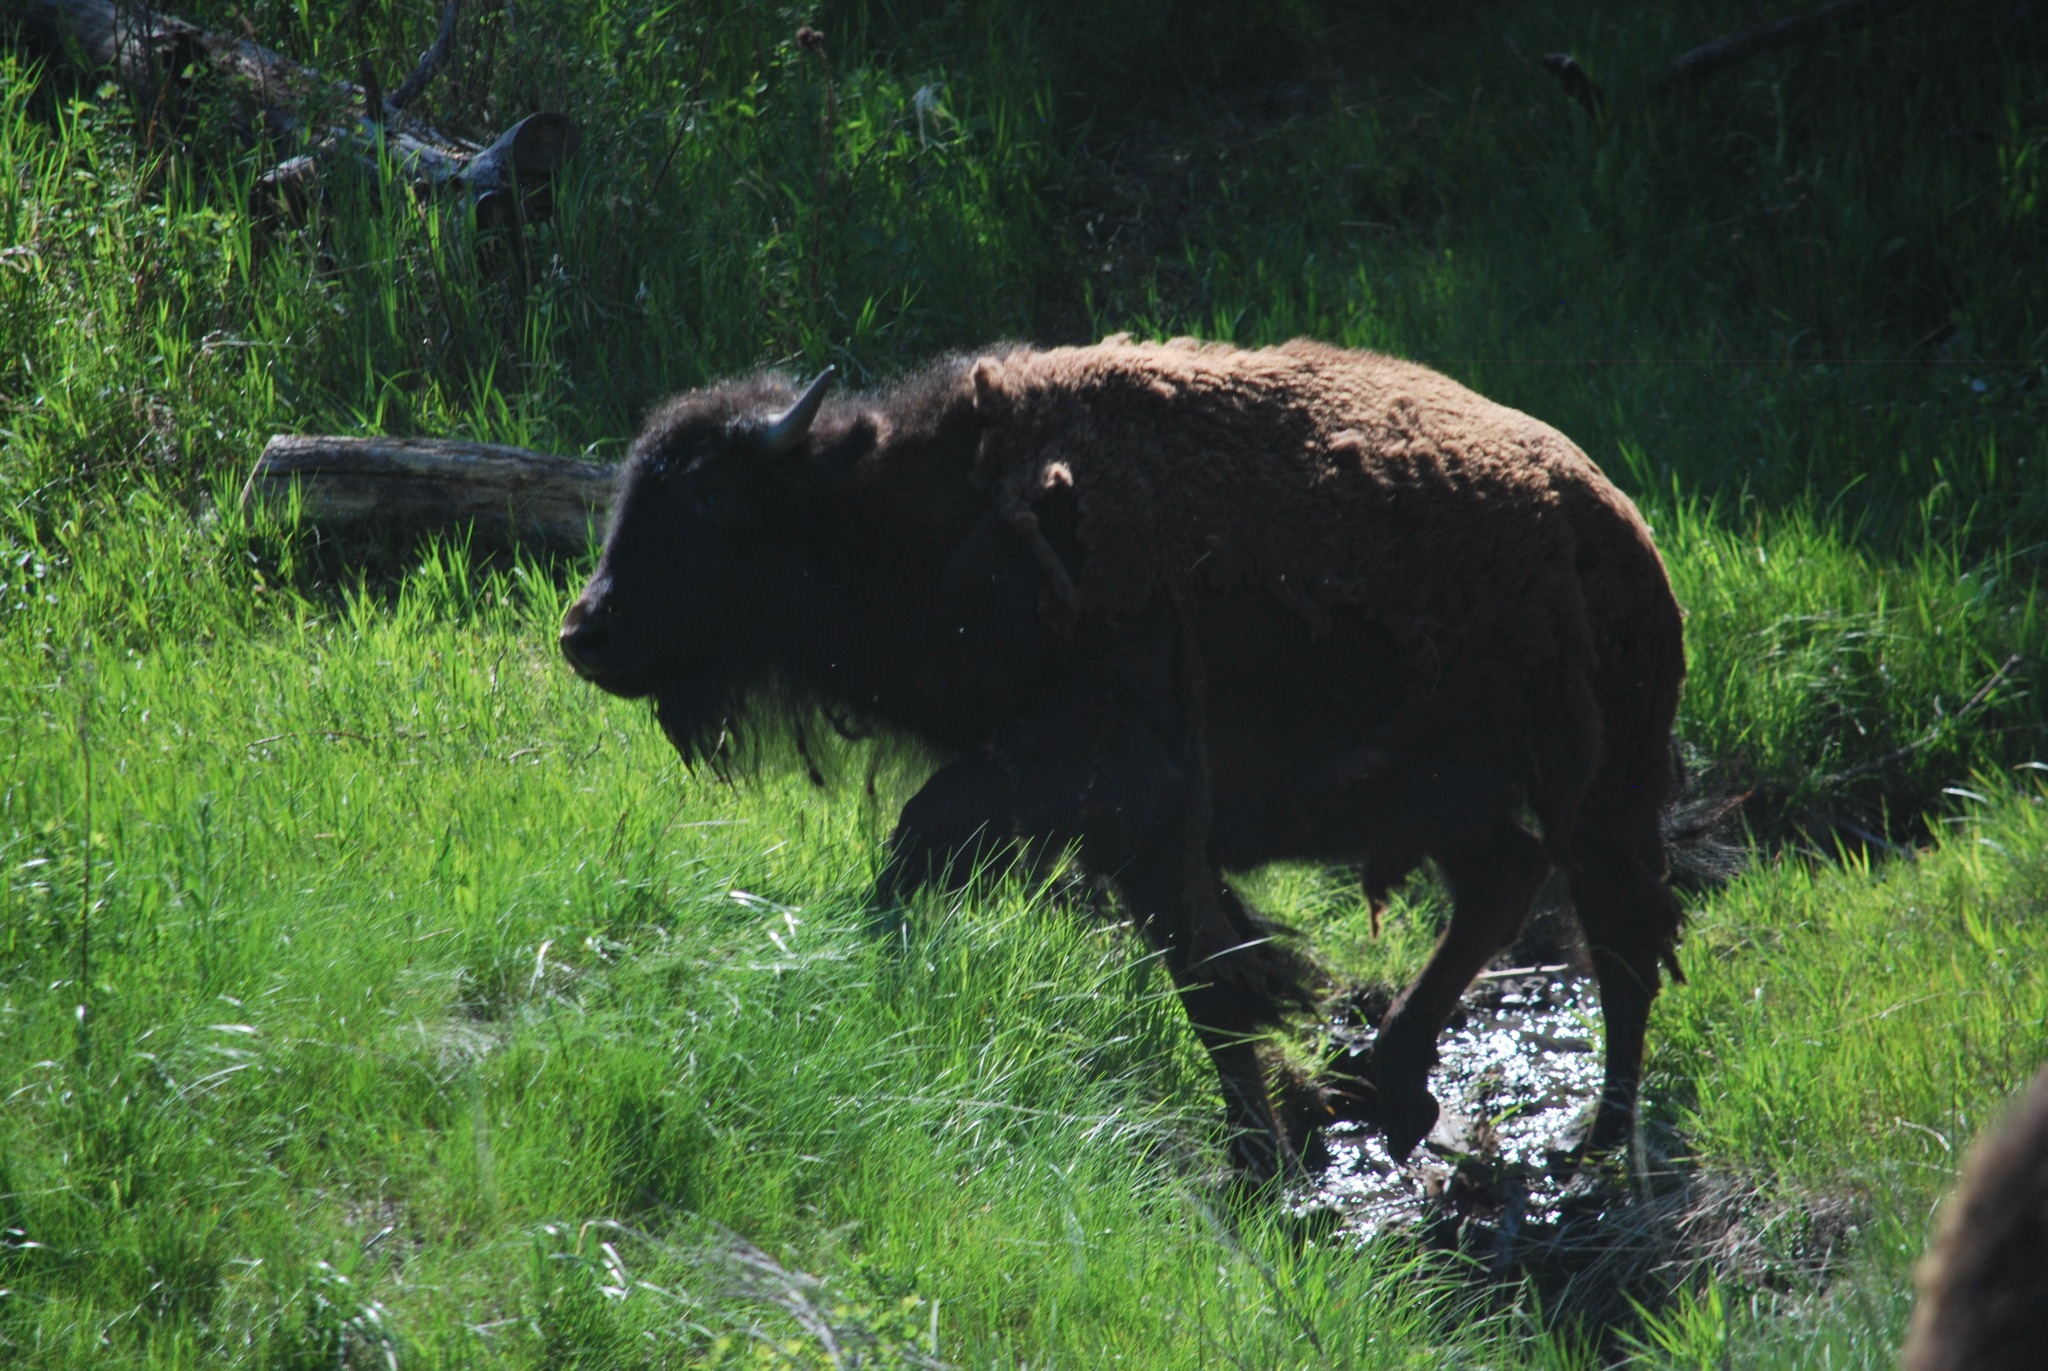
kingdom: Animalia
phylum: Chordata
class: Mammalia
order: Artiodactyla
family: Bovidae
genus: Bison
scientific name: Bison bison
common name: American bison
